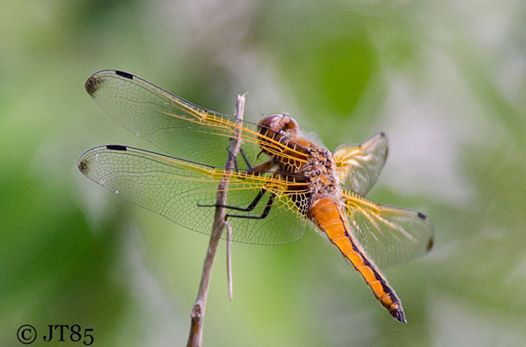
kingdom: Animalia
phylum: Arthropoda
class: Insecta
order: Odonata
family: Libellulidae
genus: Libellula
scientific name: Libellula fulva
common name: Blue chaser
